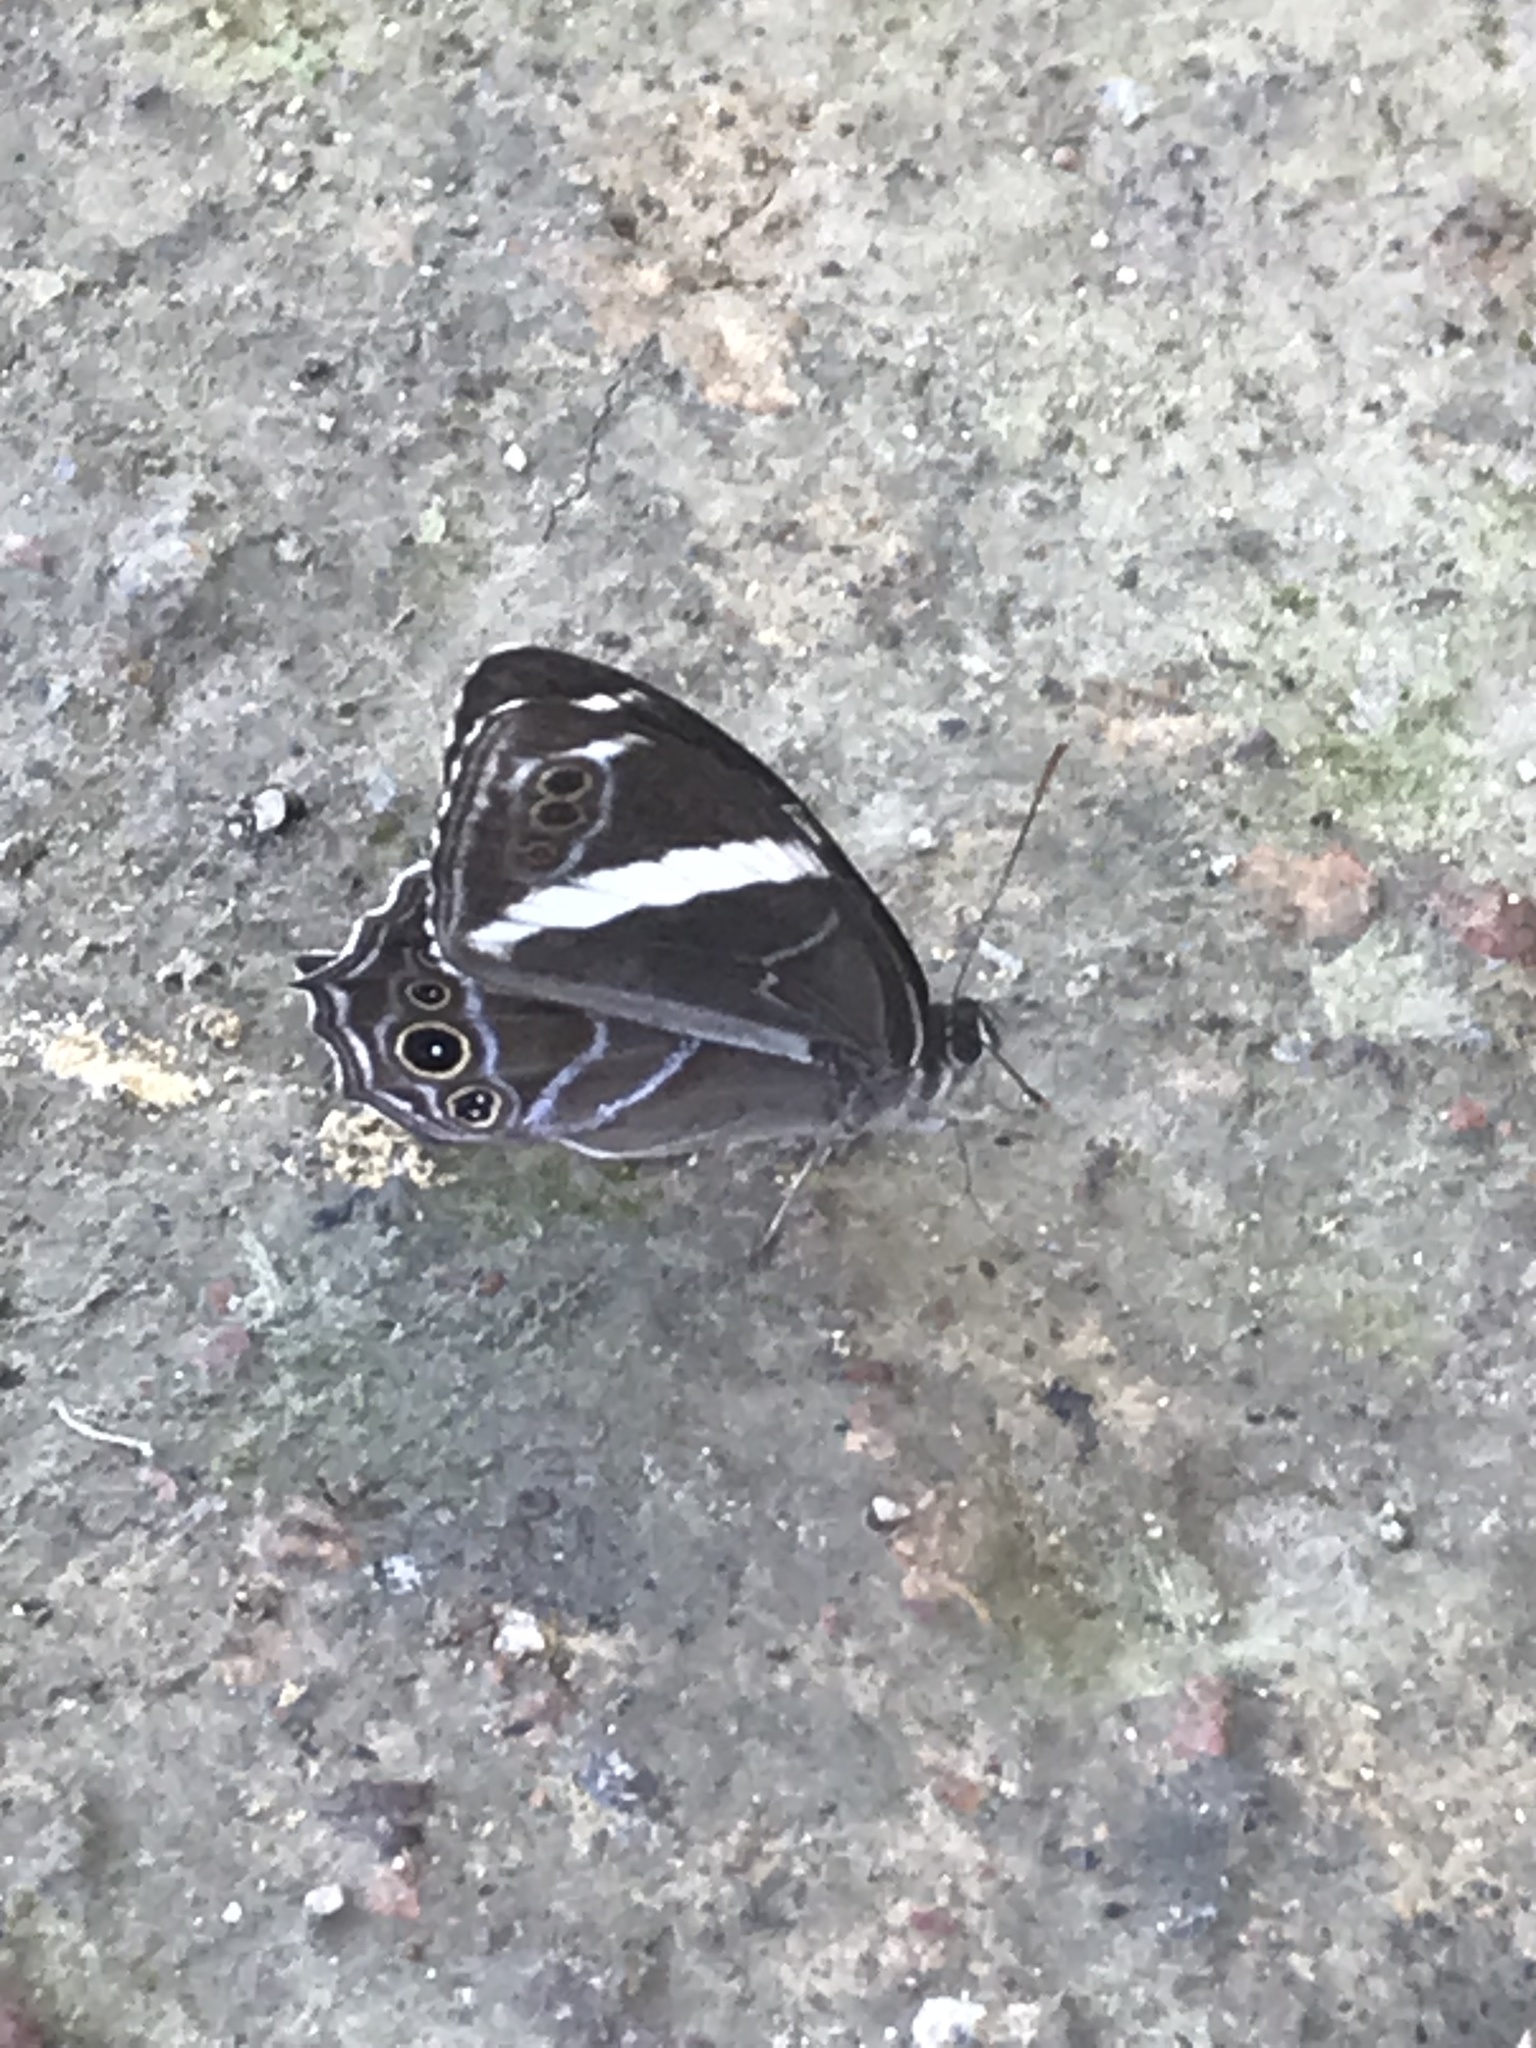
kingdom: Animalia
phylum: Arthropoda
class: Insecta
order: Lepidoptera
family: Nymphalidae
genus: Lethe
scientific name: Lethe confusa
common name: Banded treebrown
